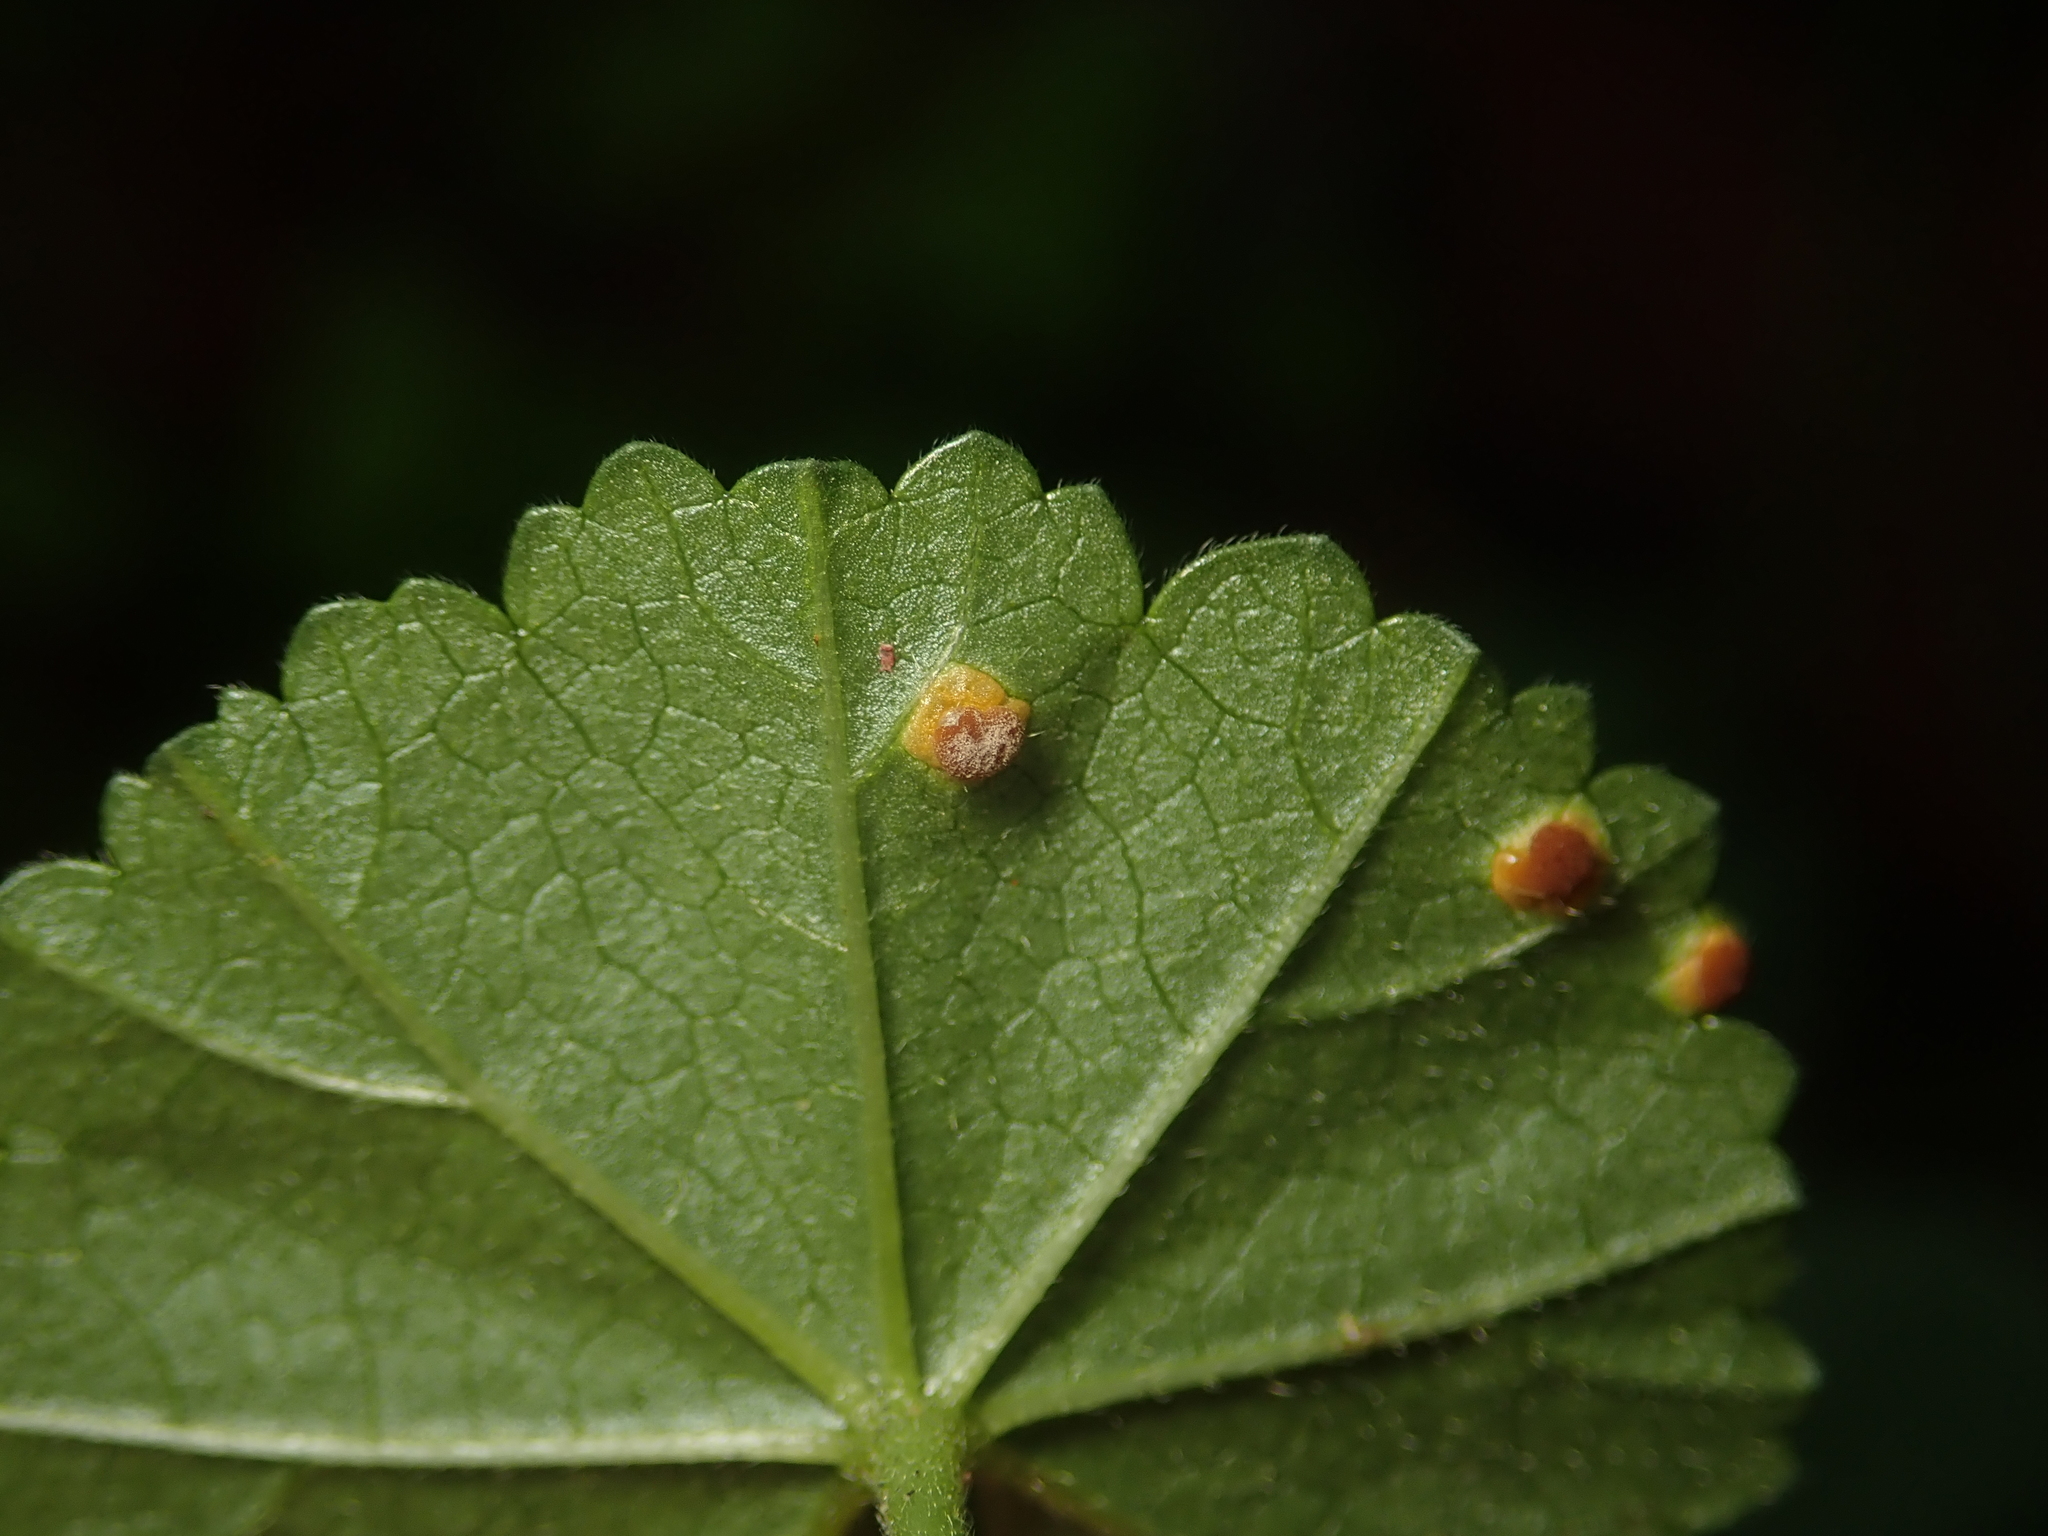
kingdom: Fungi
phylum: Basidiomycota
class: Pucciniomycetes
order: Pucciniales
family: Pucciniaceae
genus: Puccinia
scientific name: Puccinia malvacearum
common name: Hollyhock rust
